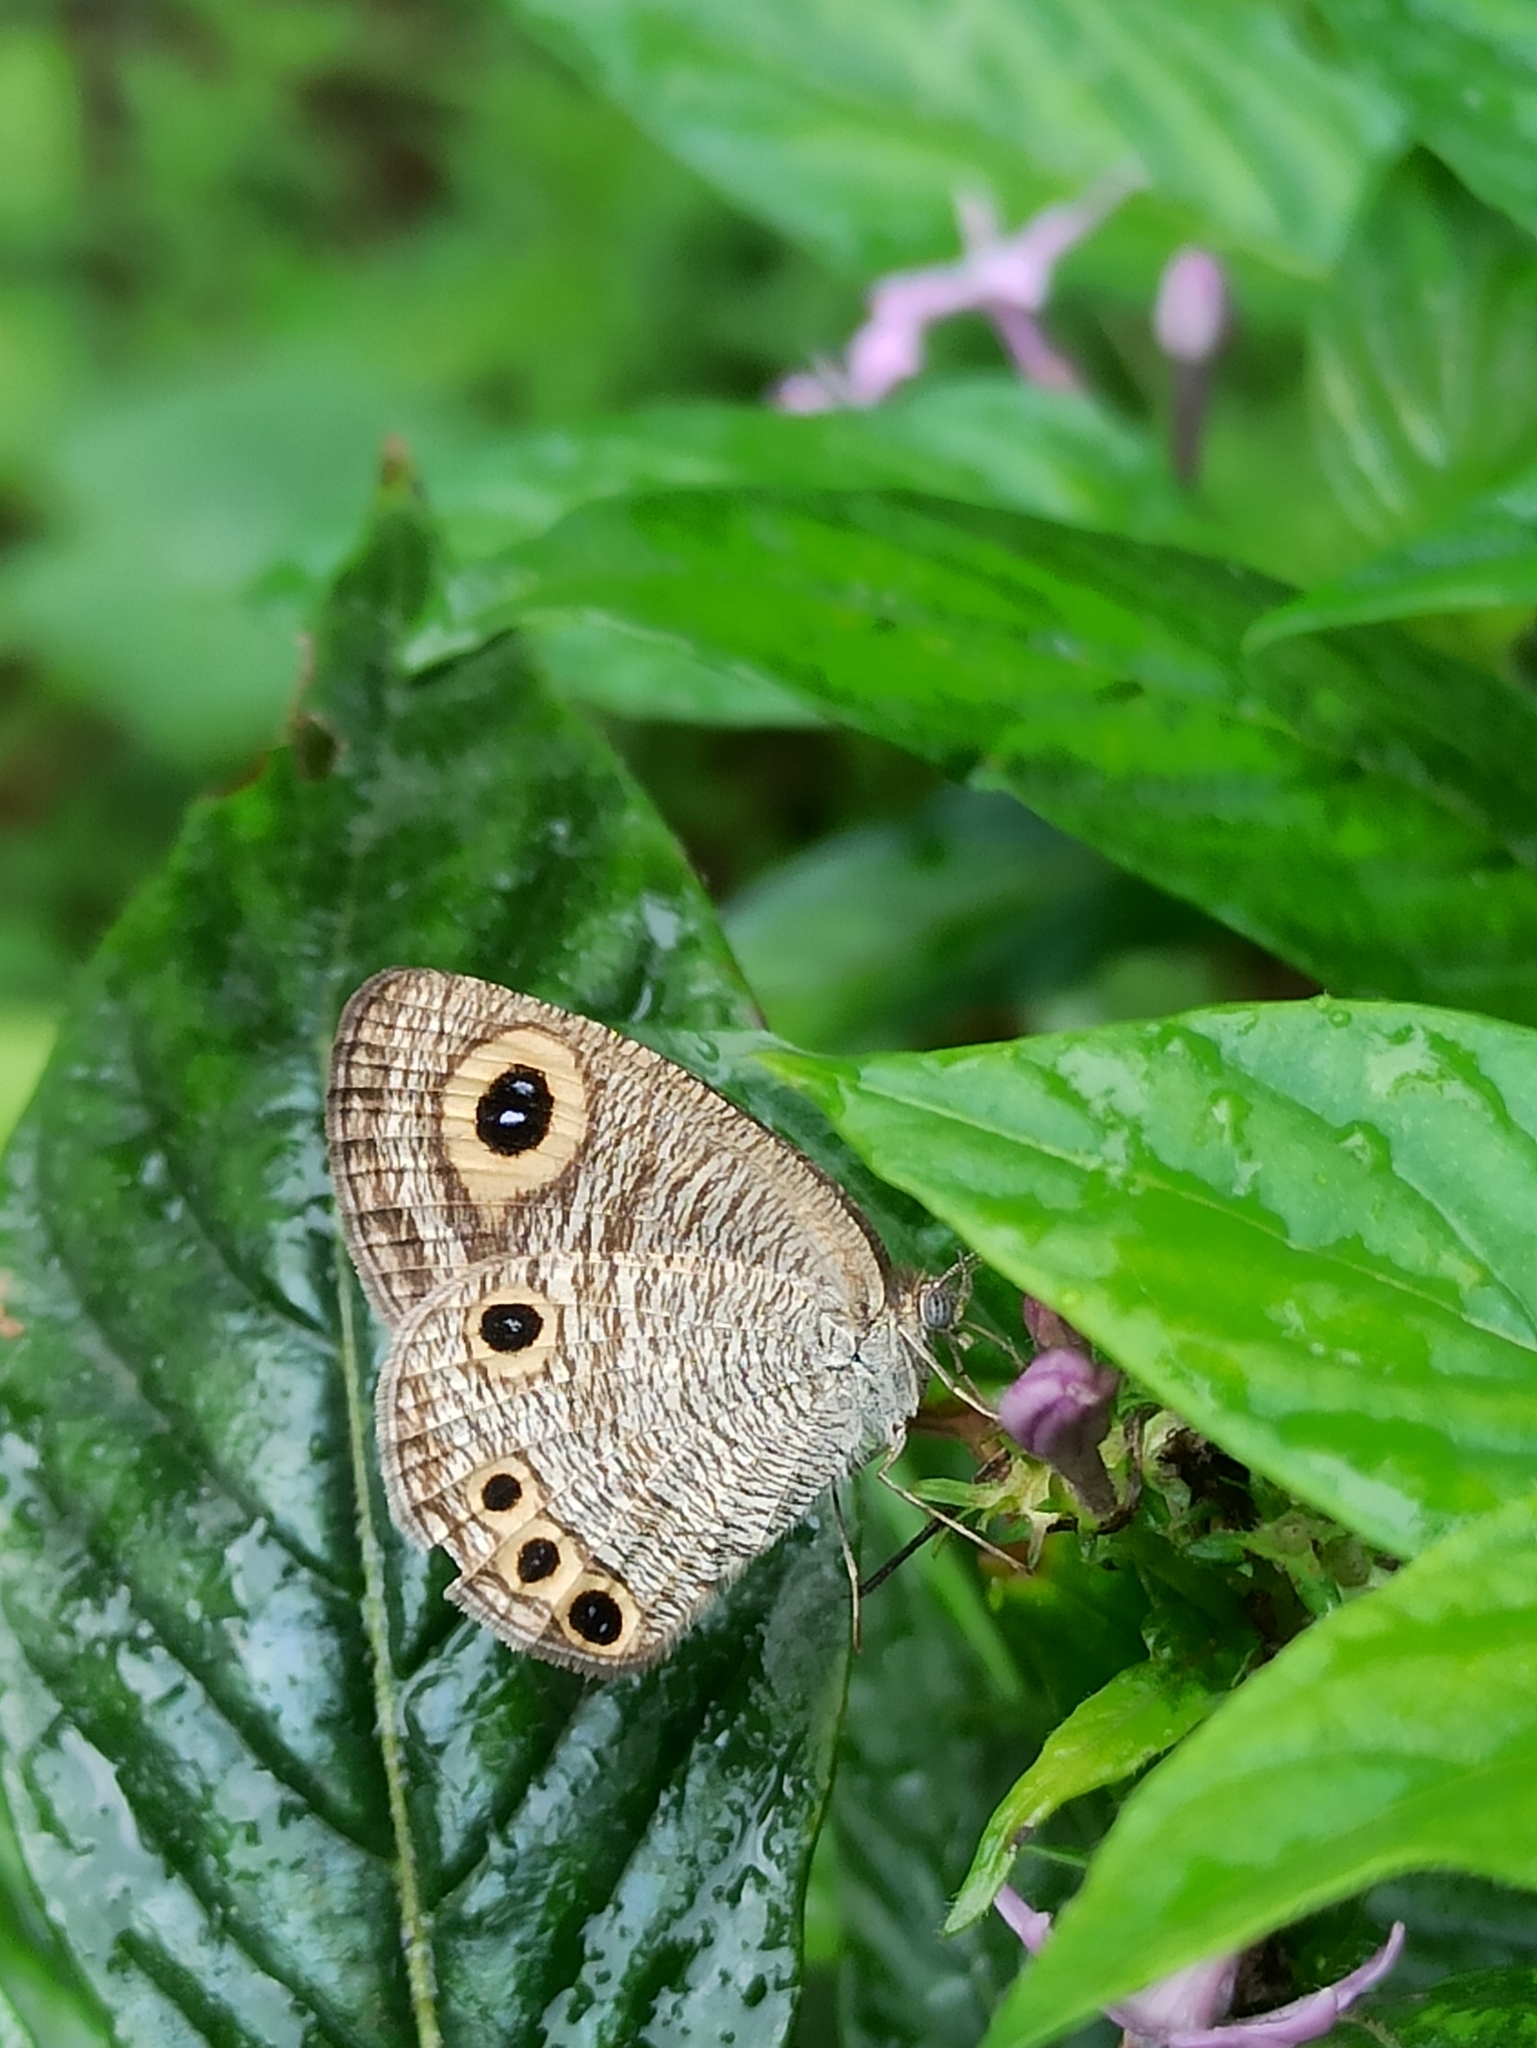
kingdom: Animalia
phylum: Arthropoda
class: Insecta
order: Lepidoptera
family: Nymphalidae
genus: Ypthima
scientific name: Ypthima huebneri
